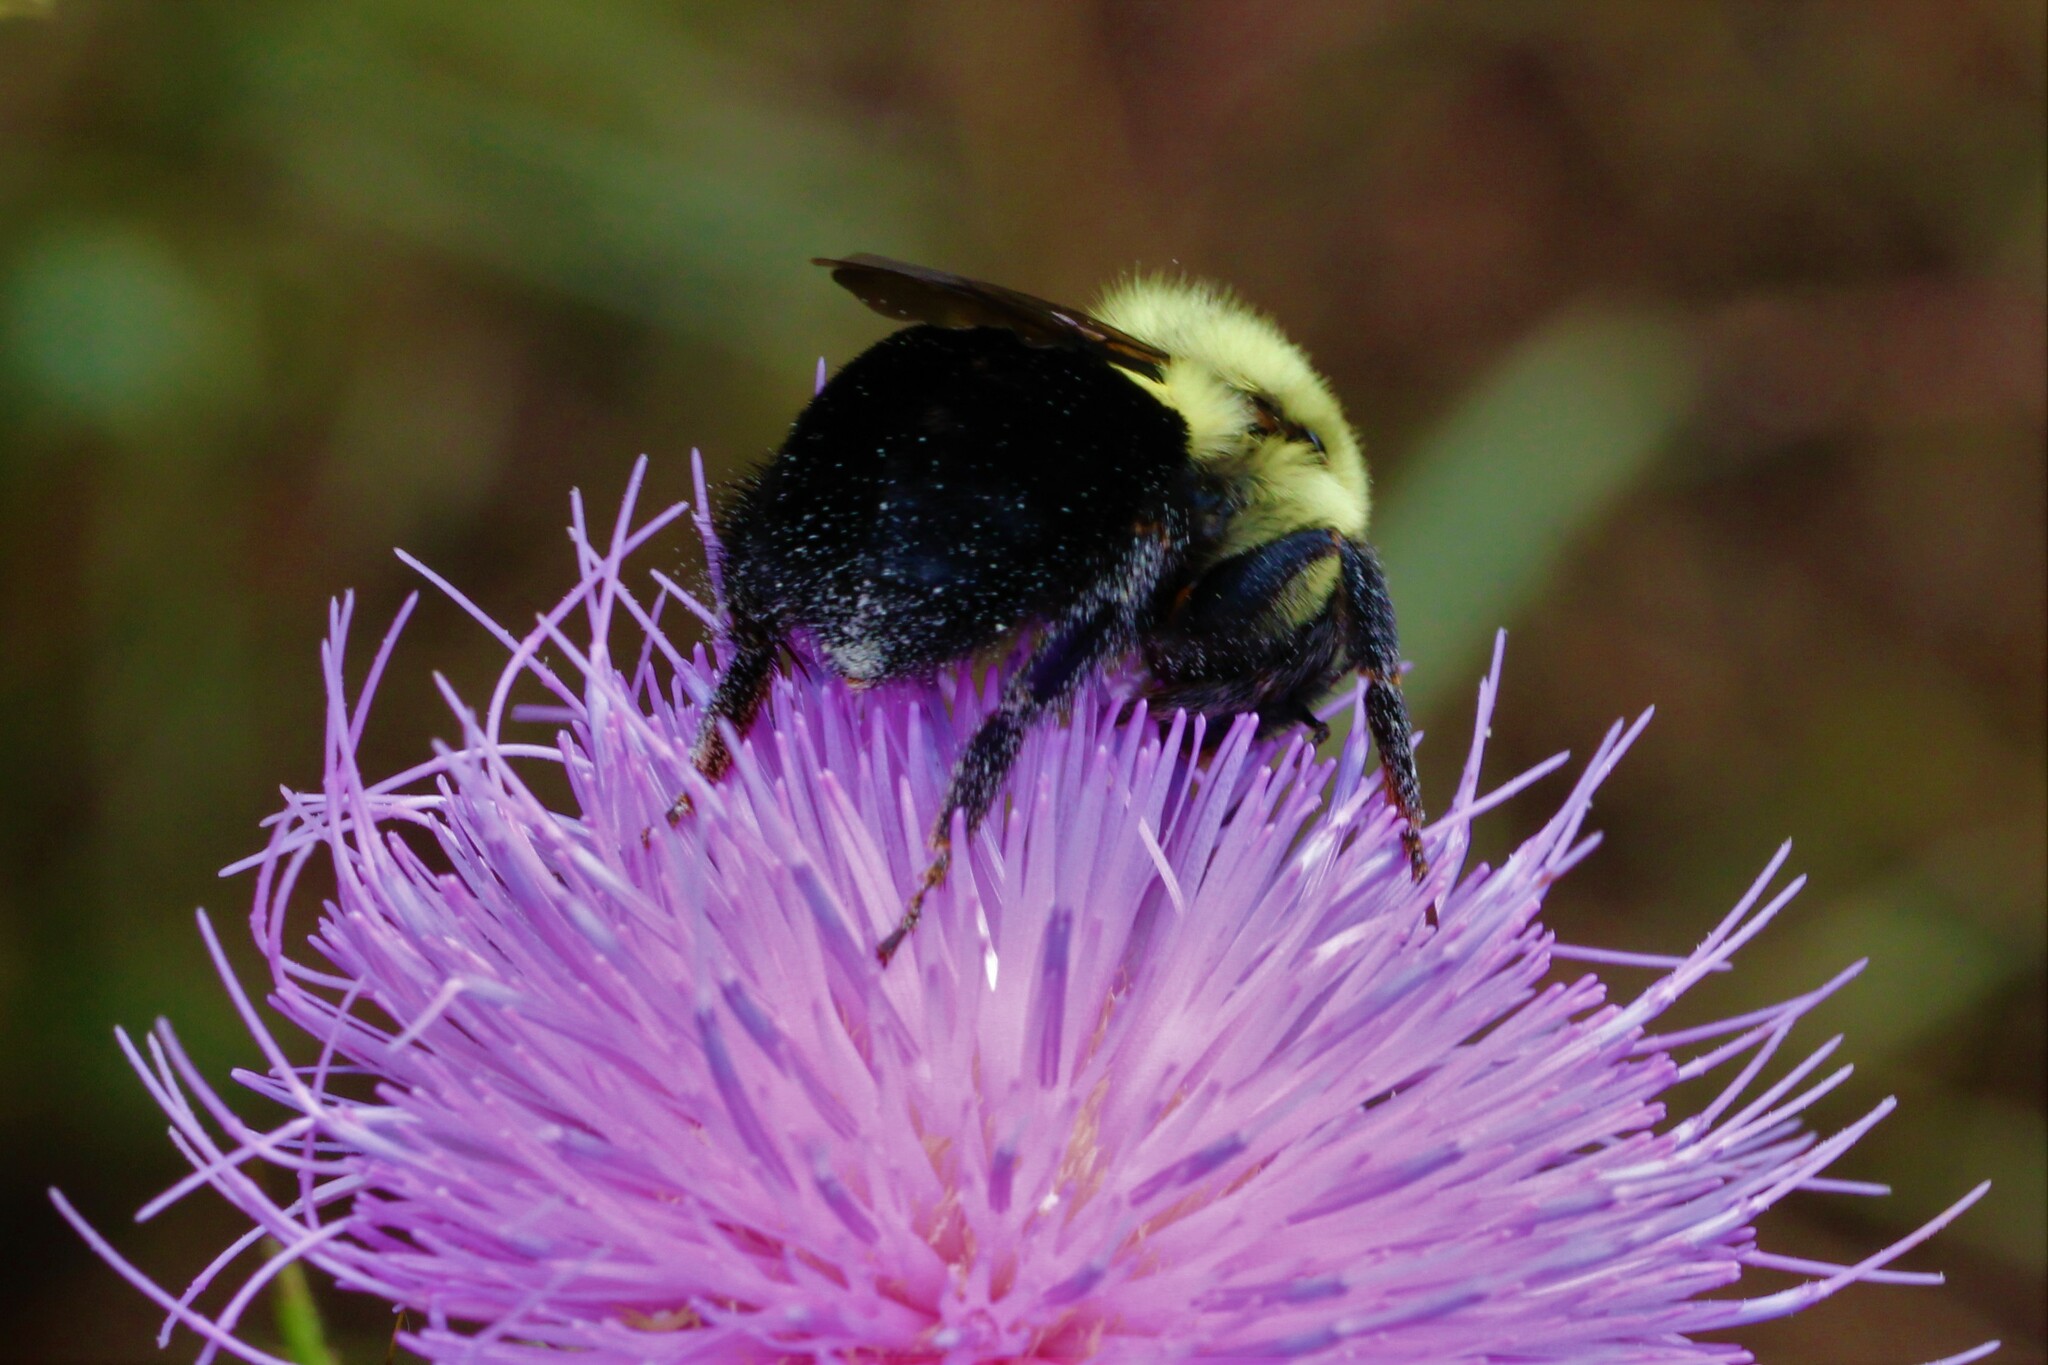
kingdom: Animalia
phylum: Arthropoda
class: Insecta
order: Hymenoptera
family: Apidae
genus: Bombus
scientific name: Bombus
